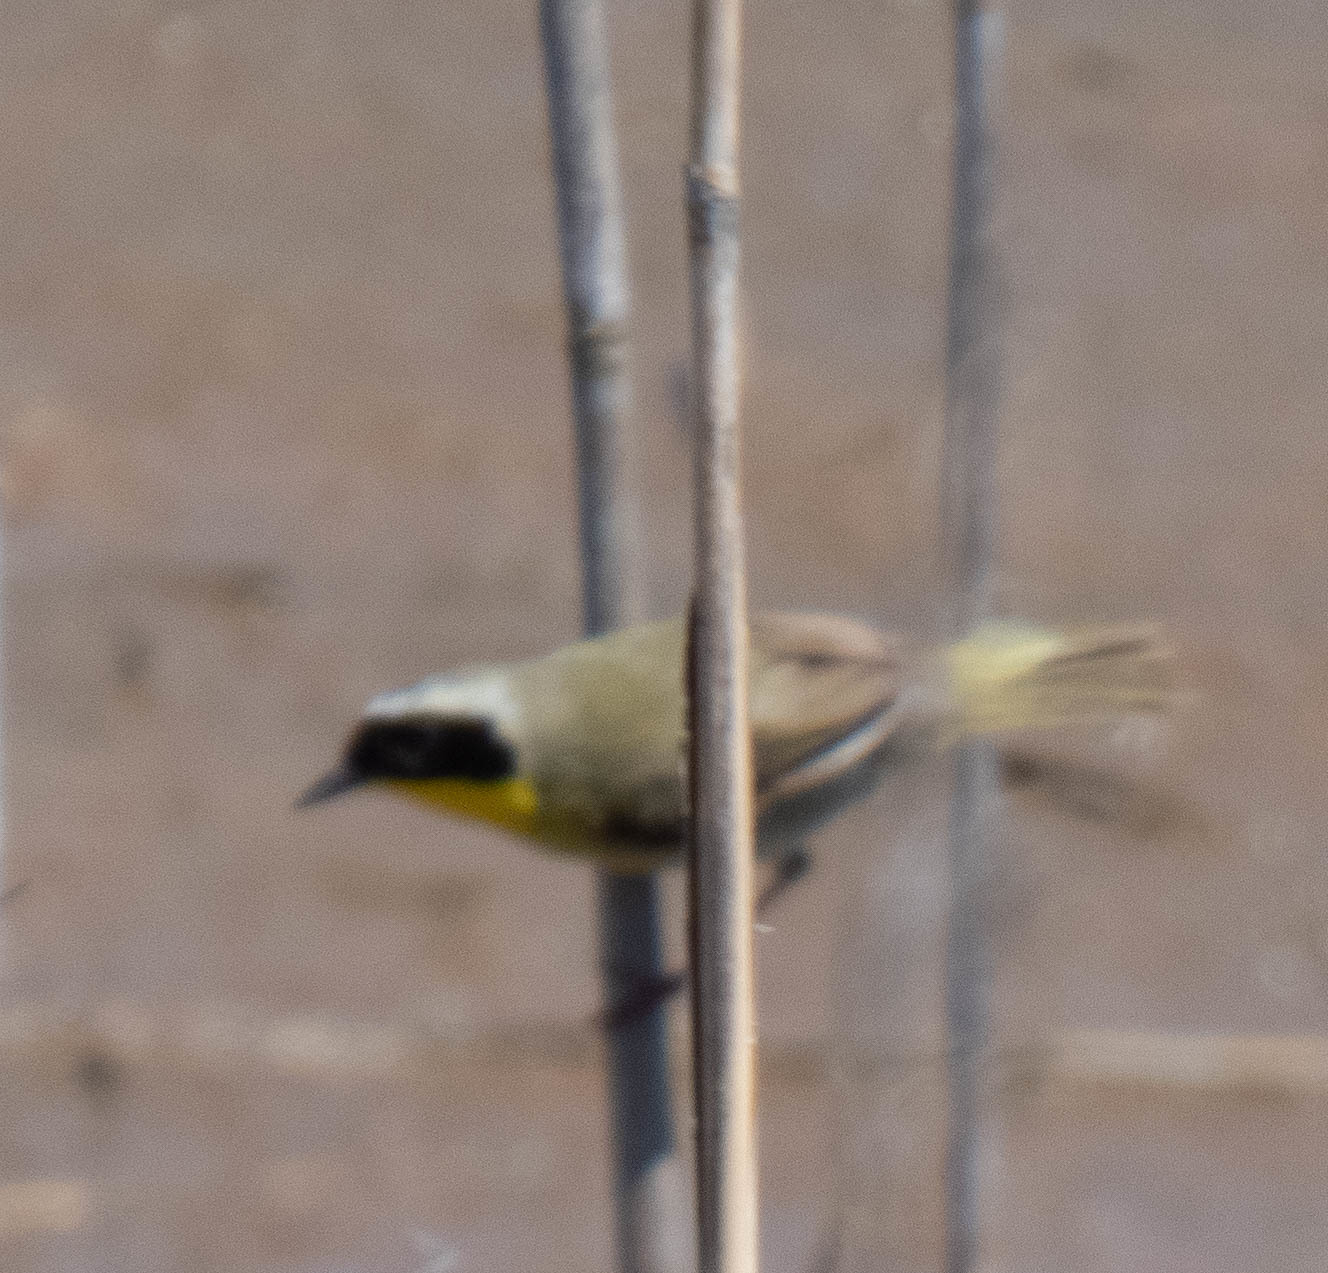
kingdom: Animalia
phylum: Chordata
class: Aves
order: Passeriformes
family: Parulidae
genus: Geothlypis
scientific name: Geothlypis trichas
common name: Common yellowthroat
